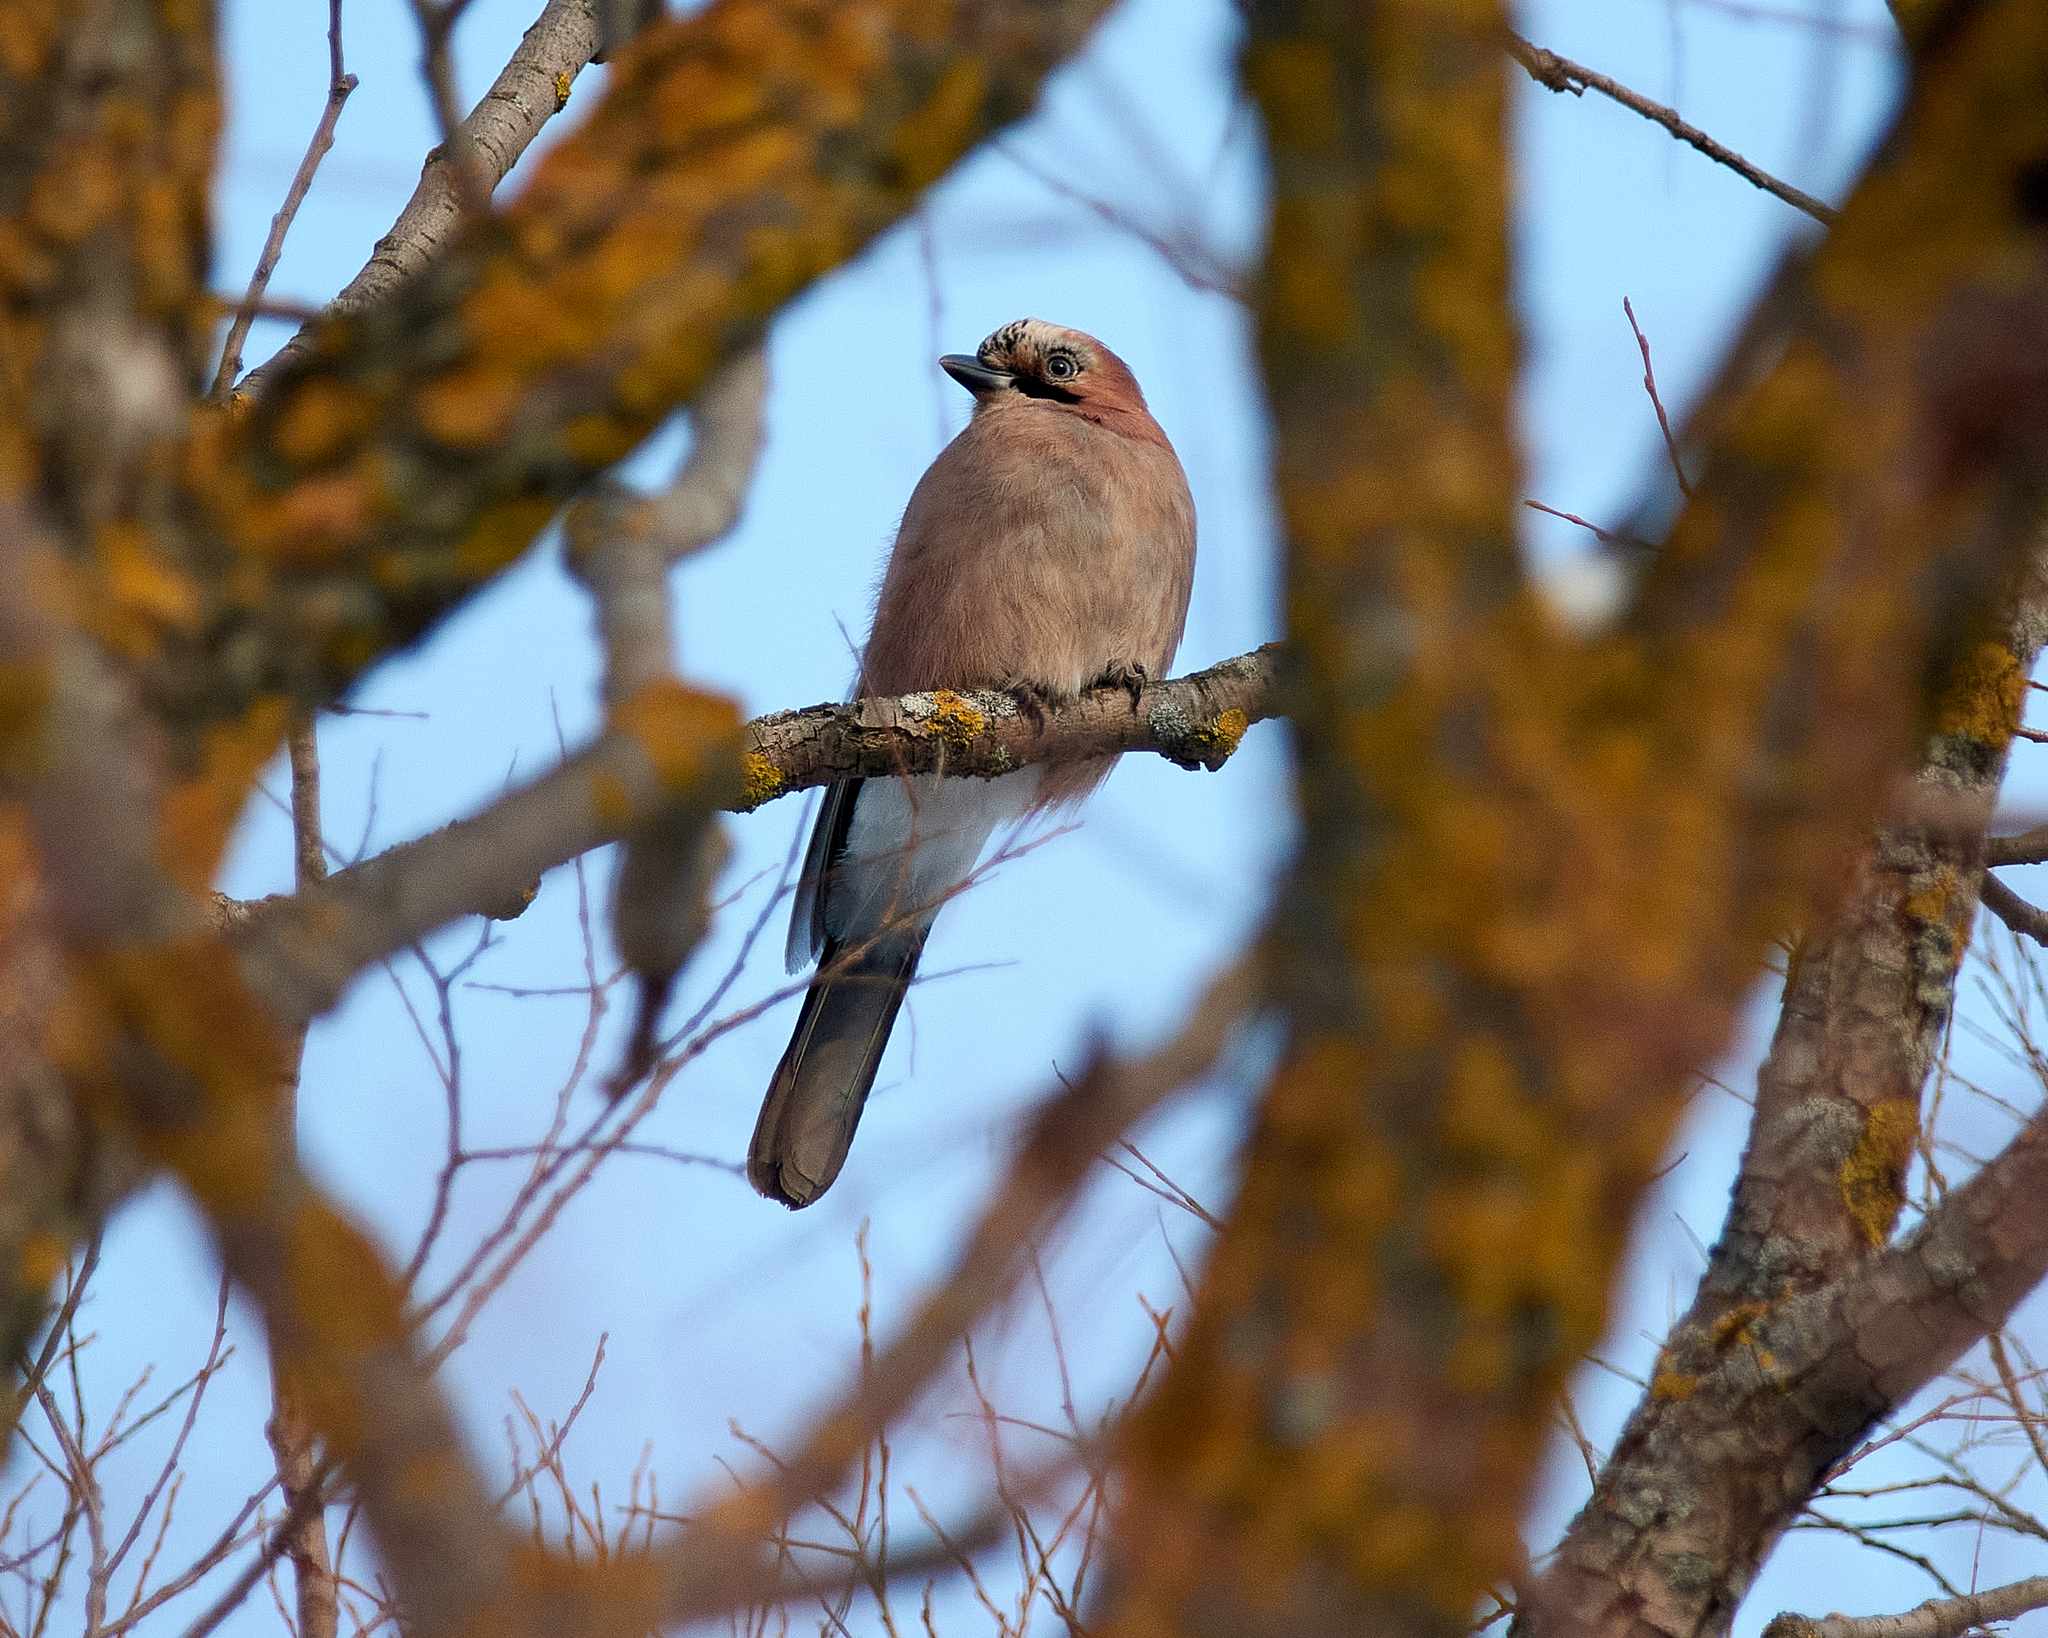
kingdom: Animalia
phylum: Chordata
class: Aves
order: Passeriformes
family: Corvidae
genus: Garrulus
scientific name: Garrulus glandarius
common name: Eurasian jay
